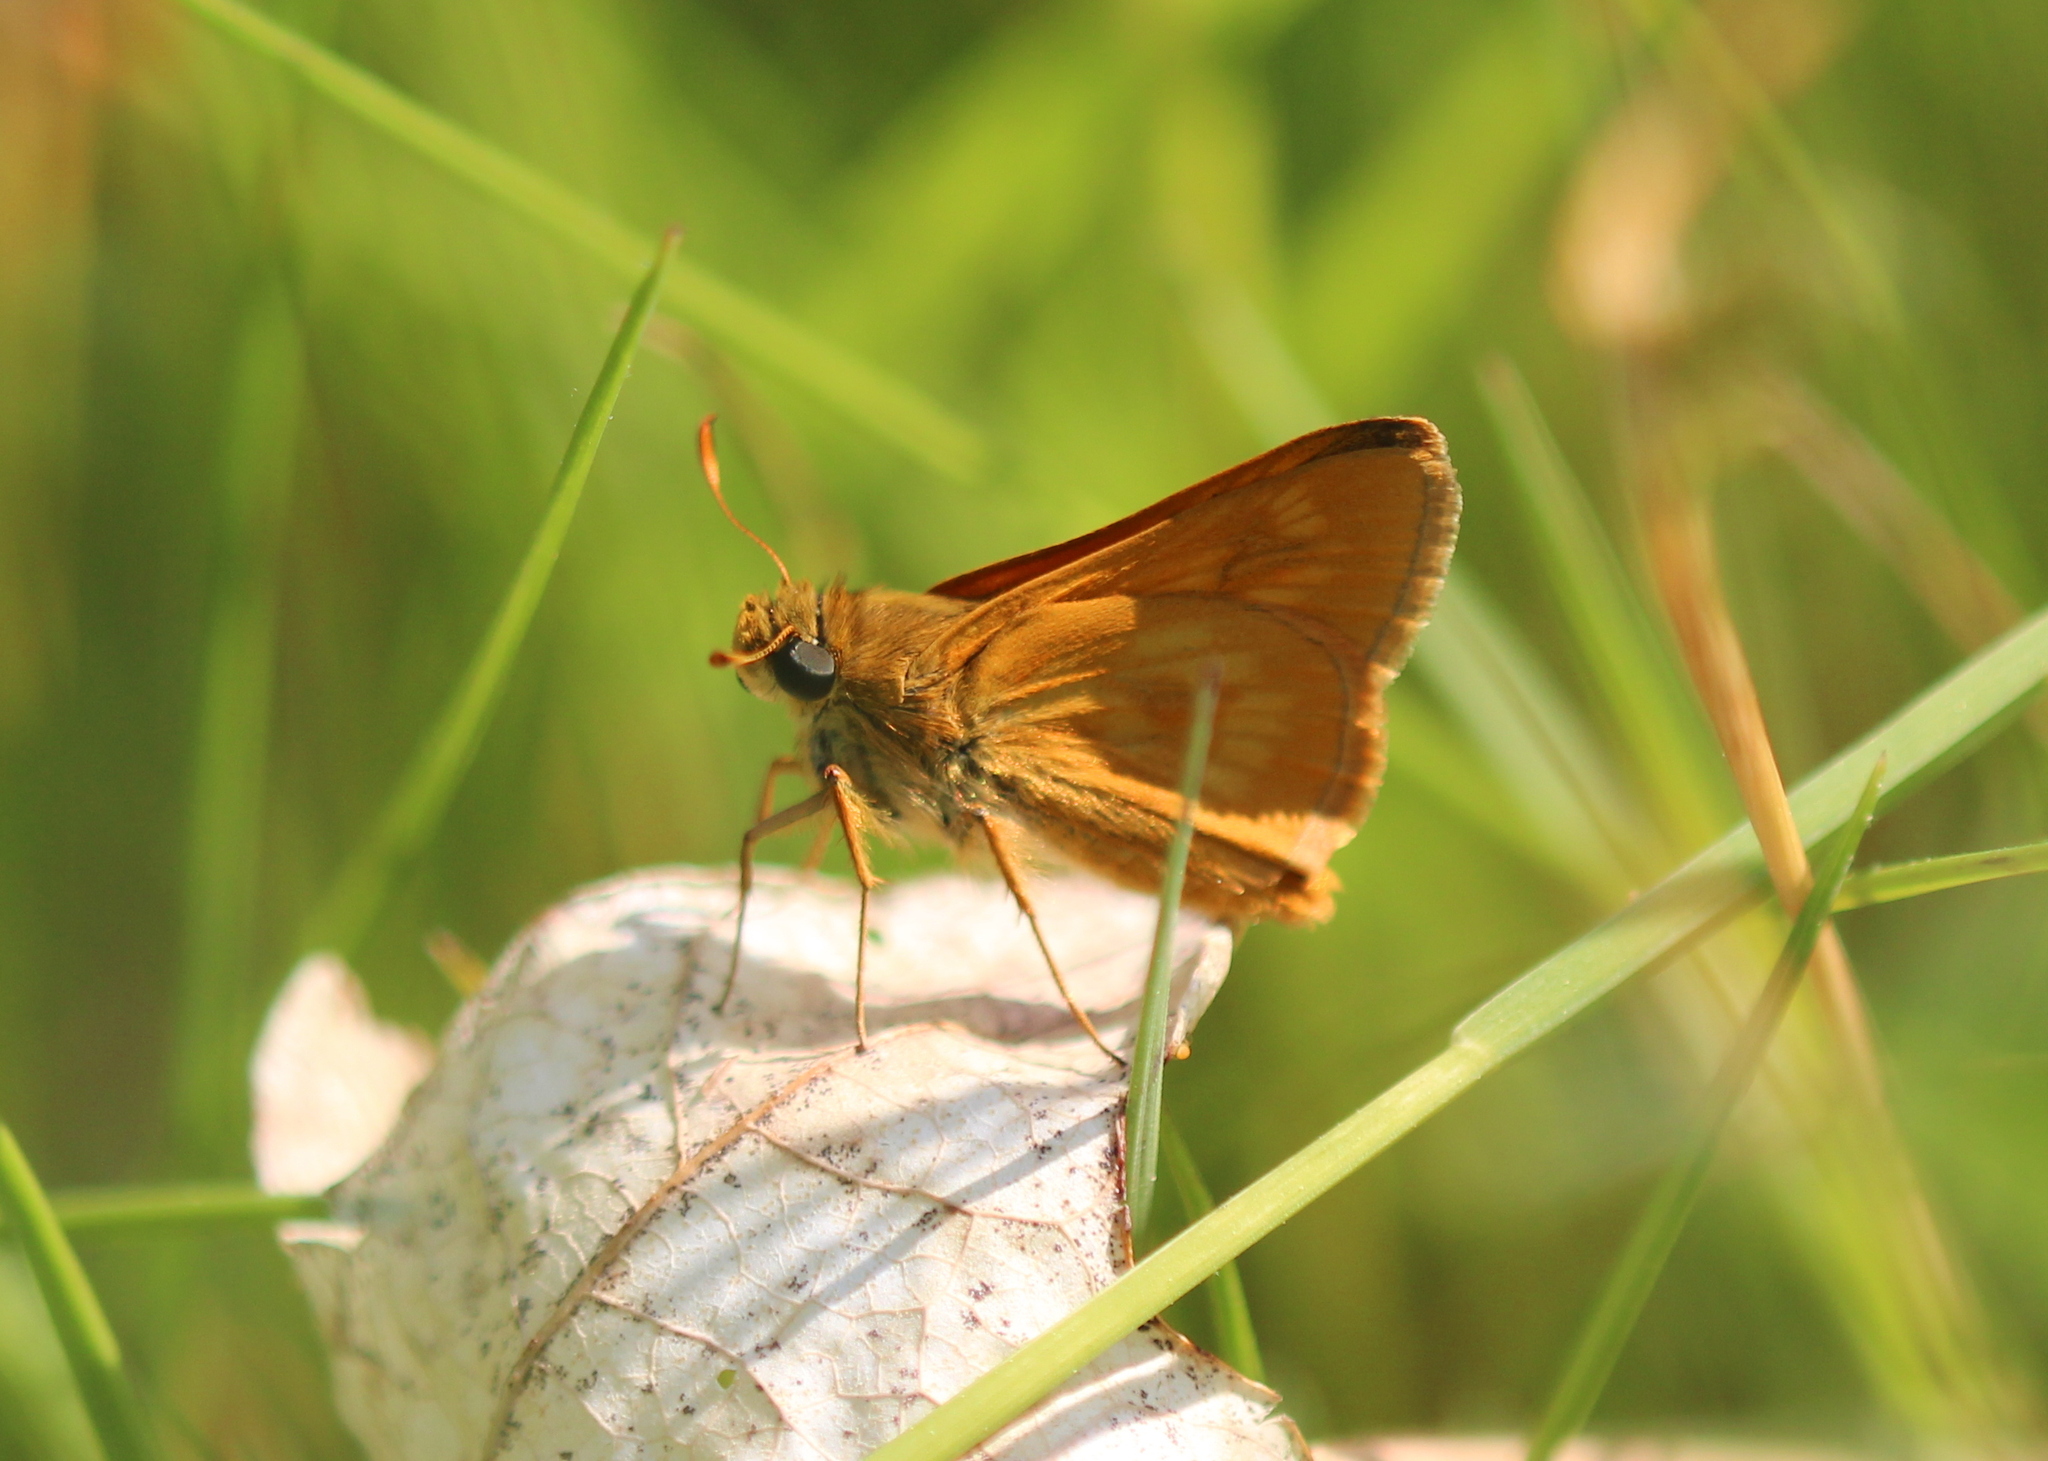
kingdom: Animalia
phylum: Arthropoda
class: Insecta
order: Lepidoptera
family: Hesperiidae
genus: Polites
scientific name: Polites mystic
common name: Long dash
